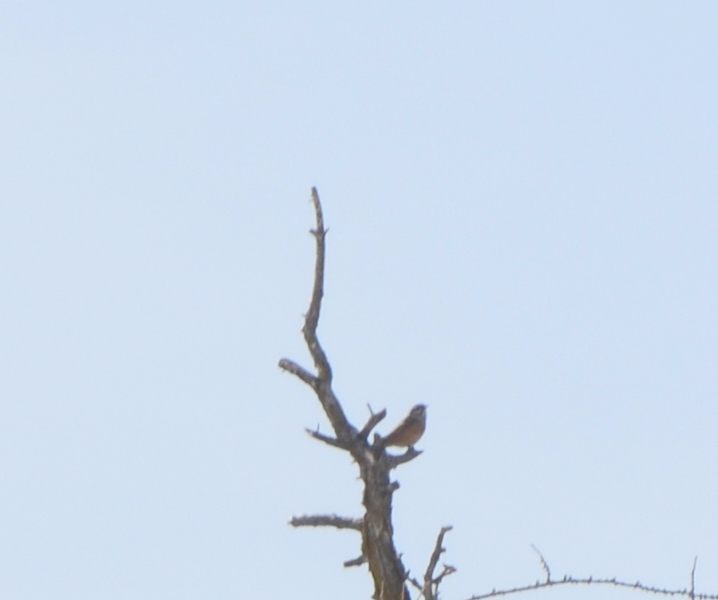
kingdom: Animalia
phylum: Chordata
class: Aves
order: Passeriformes
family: Emberizidae
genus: Emberiza
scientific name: Emberiza cia
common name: Rock bunting
